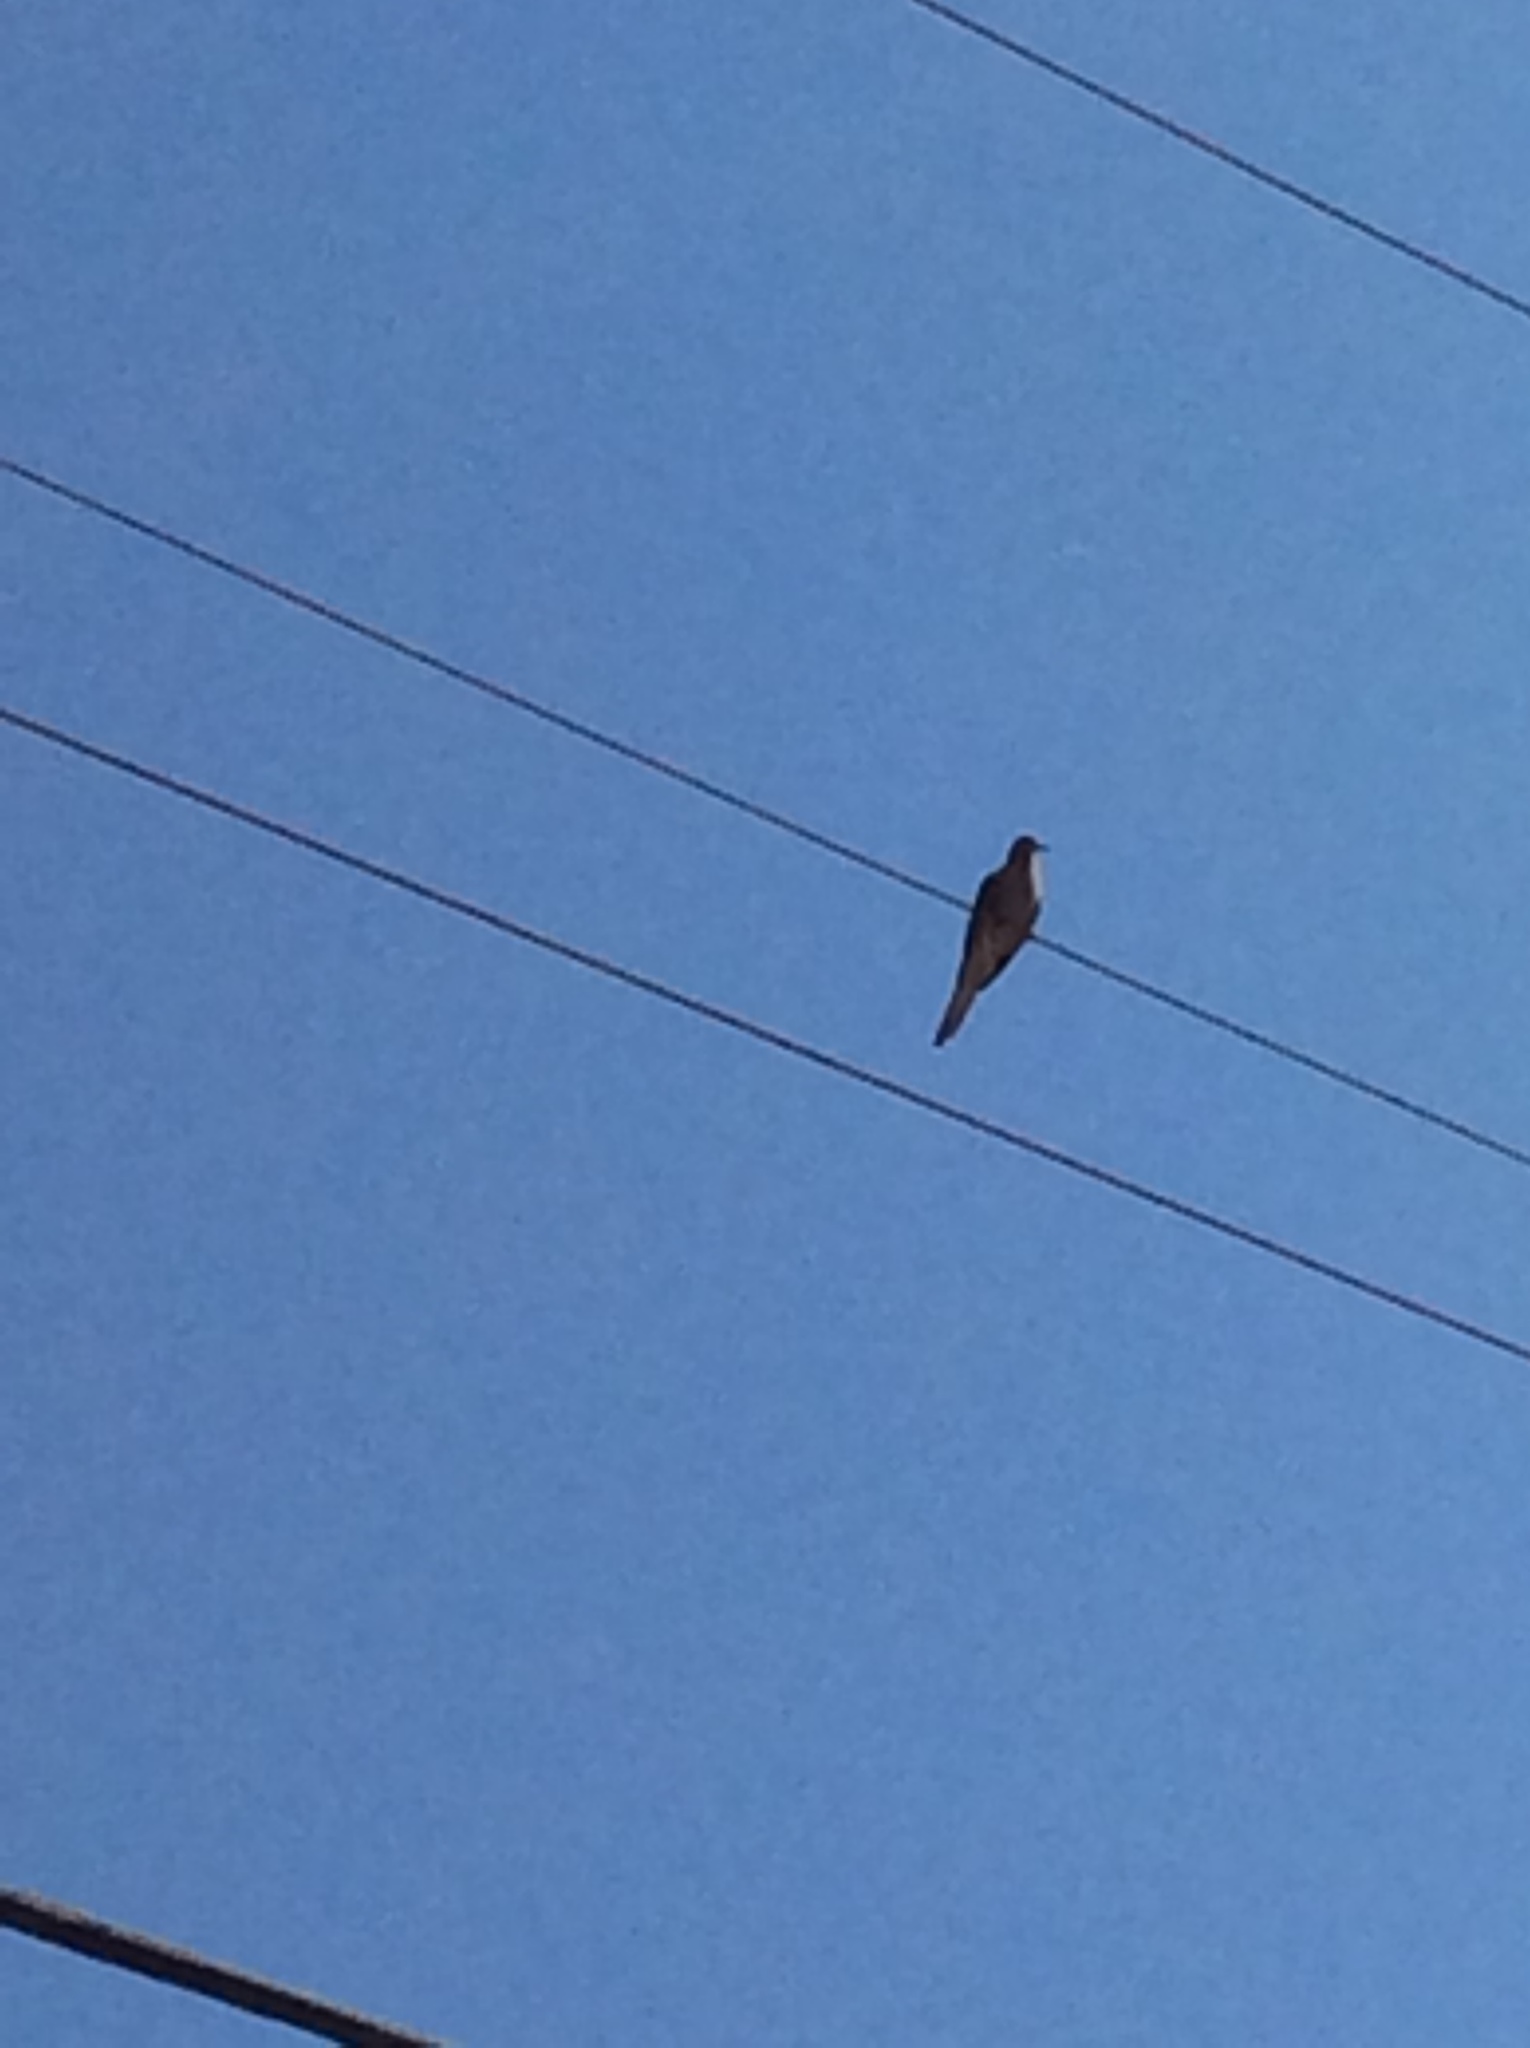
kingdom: Animalia
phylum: Chordata
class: Aves
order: Columbiformes
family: Columbidae
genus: Zenaida
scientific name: Zenaida macroura
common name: Mourning dove
